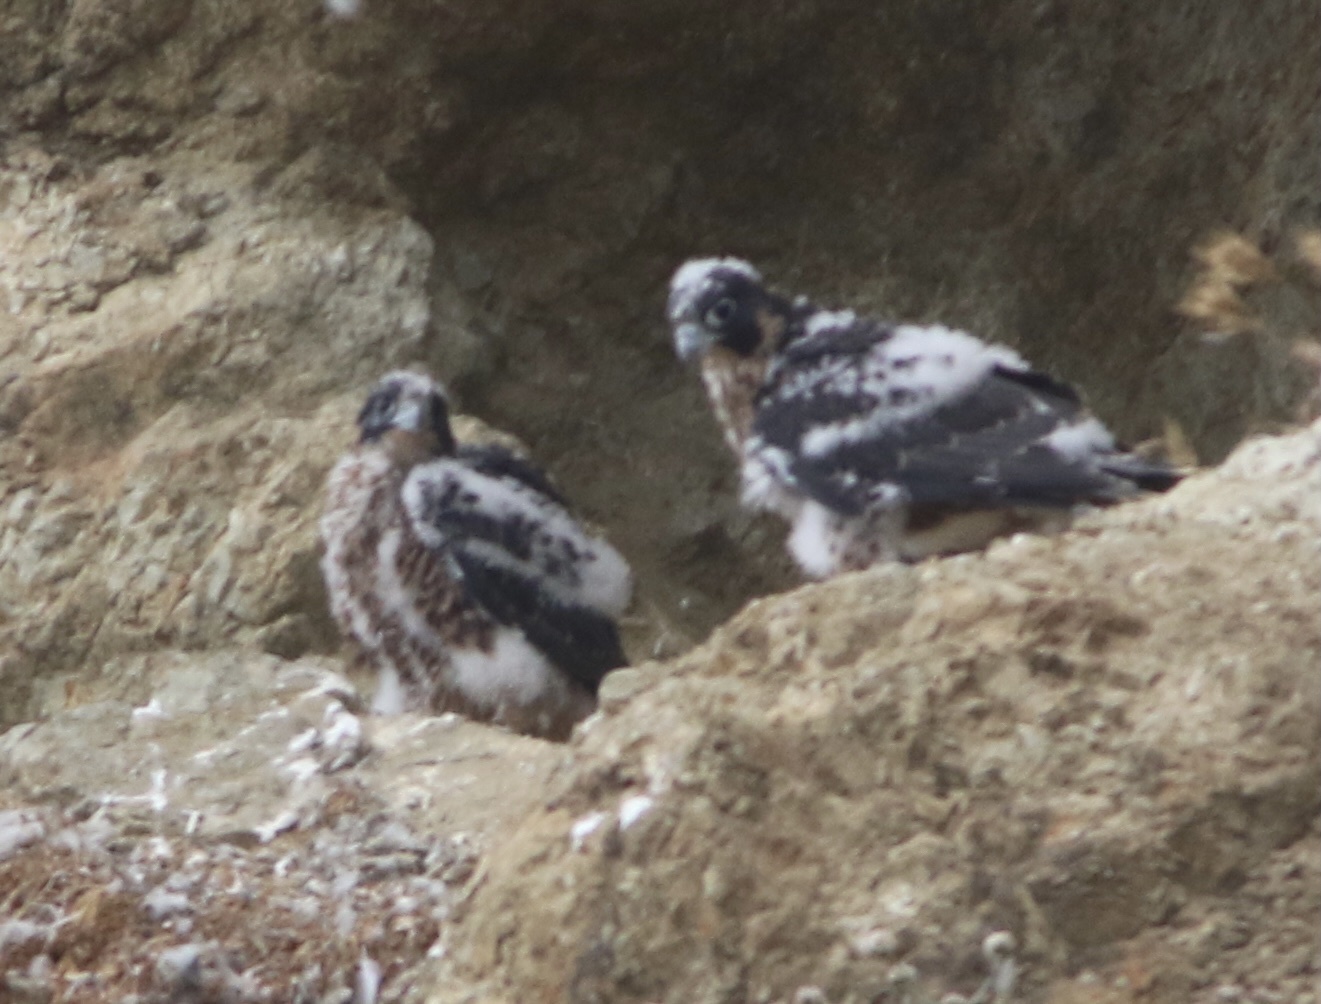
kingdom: Animalia
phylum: Chordata
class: Aves
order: Falconiformes
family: Falconidae
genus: Falco
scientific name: Falco peregrinus
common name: Peregrine falcon
